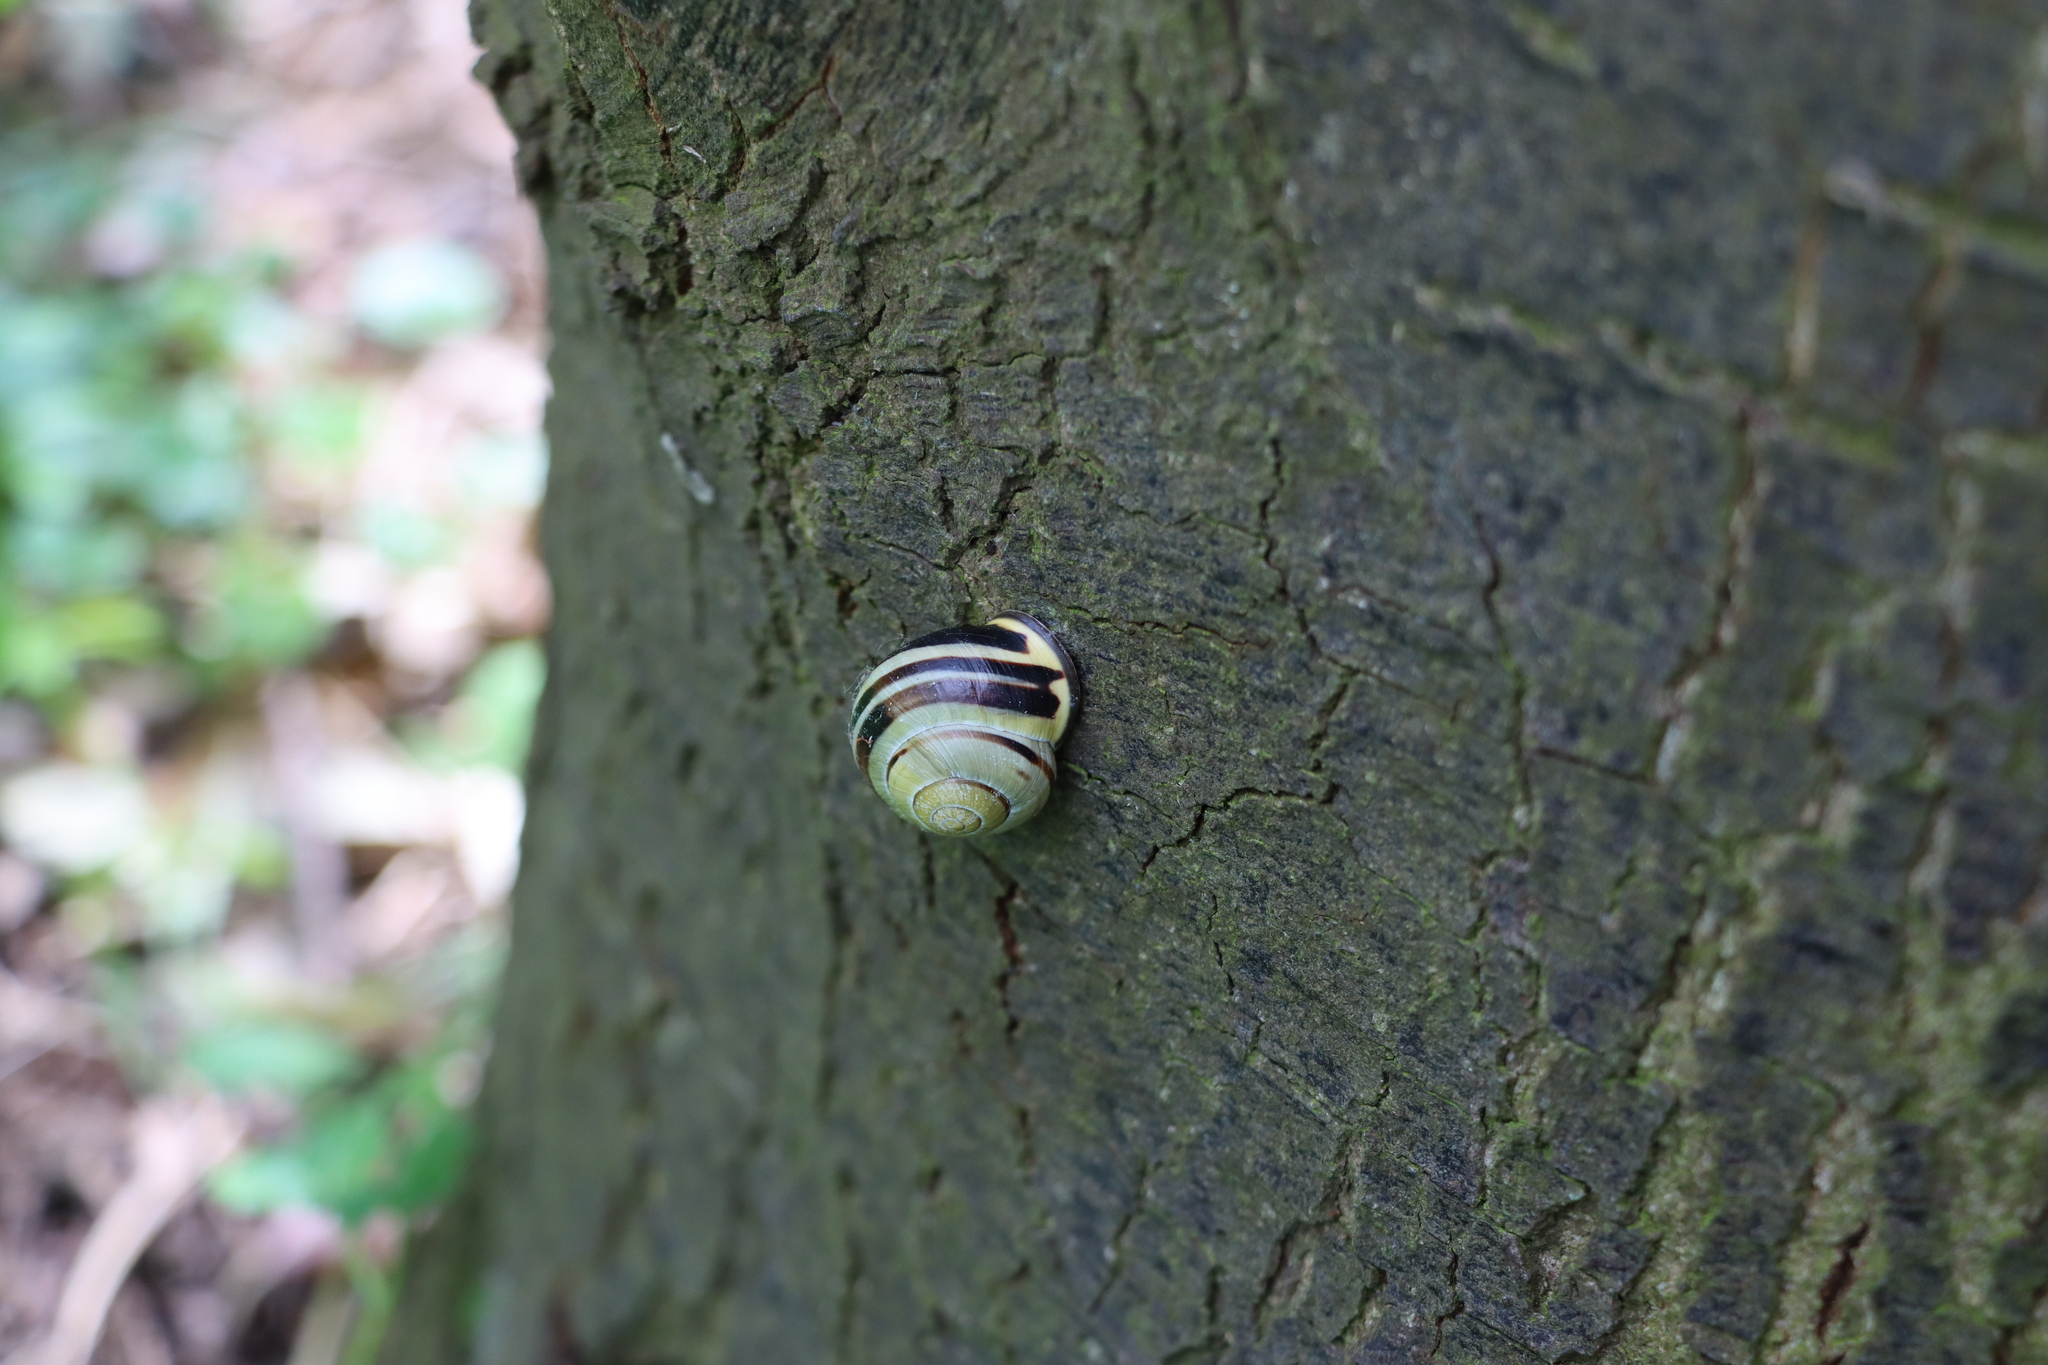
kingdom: Animalia
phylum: Mollusca
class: Gastropoda
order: Stylommatophora
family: Helicidae
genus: Cepaea
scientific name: Cepaea nemoralis
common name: Grovesnail
